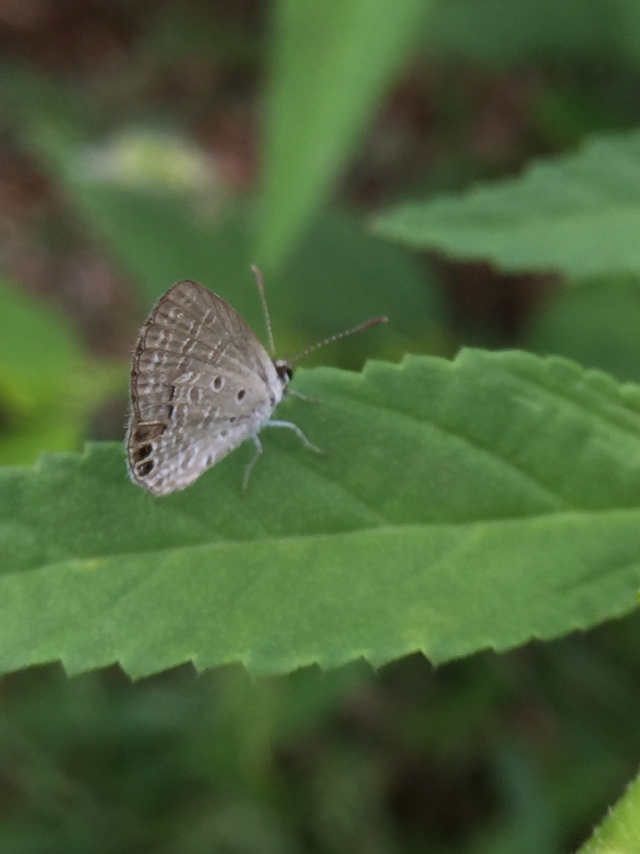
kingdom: Animalia
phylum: Arthropoda
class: Insecta
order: Lepidoptera
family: Lycaenidae
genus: Freyeria
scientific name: Freyeria putli
